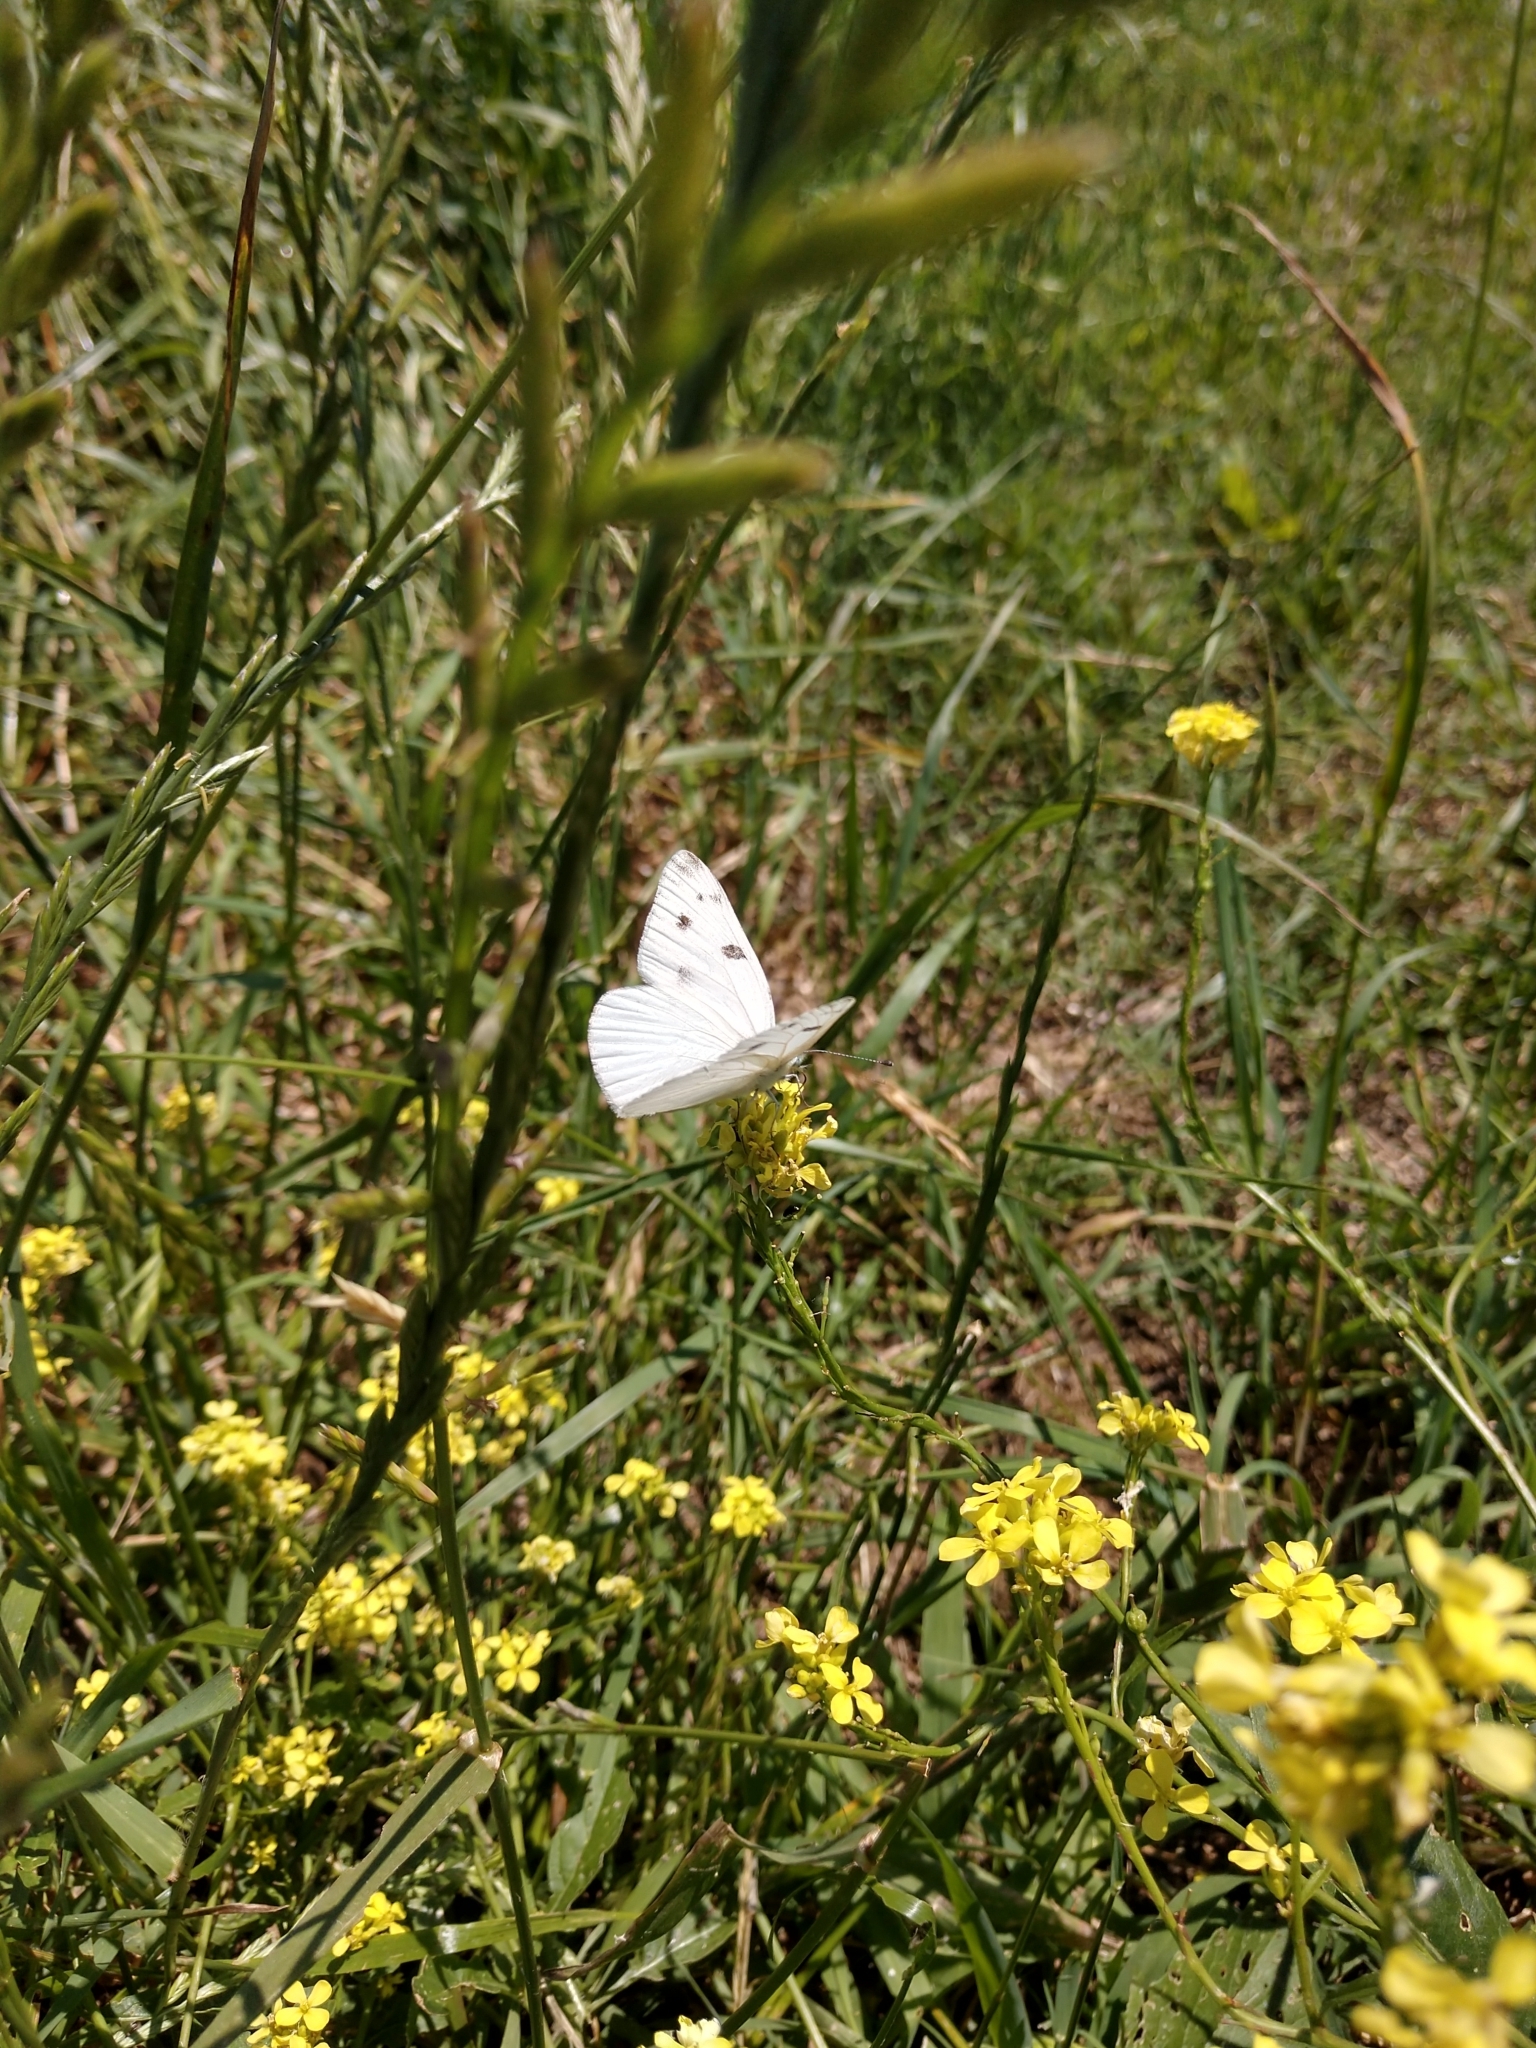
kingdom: Animalia
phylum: Arthropoda
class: Insecta
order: Lepidoptera
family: Pieridae
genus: Pontia
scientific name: Pontia protodice
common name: Checkered white
